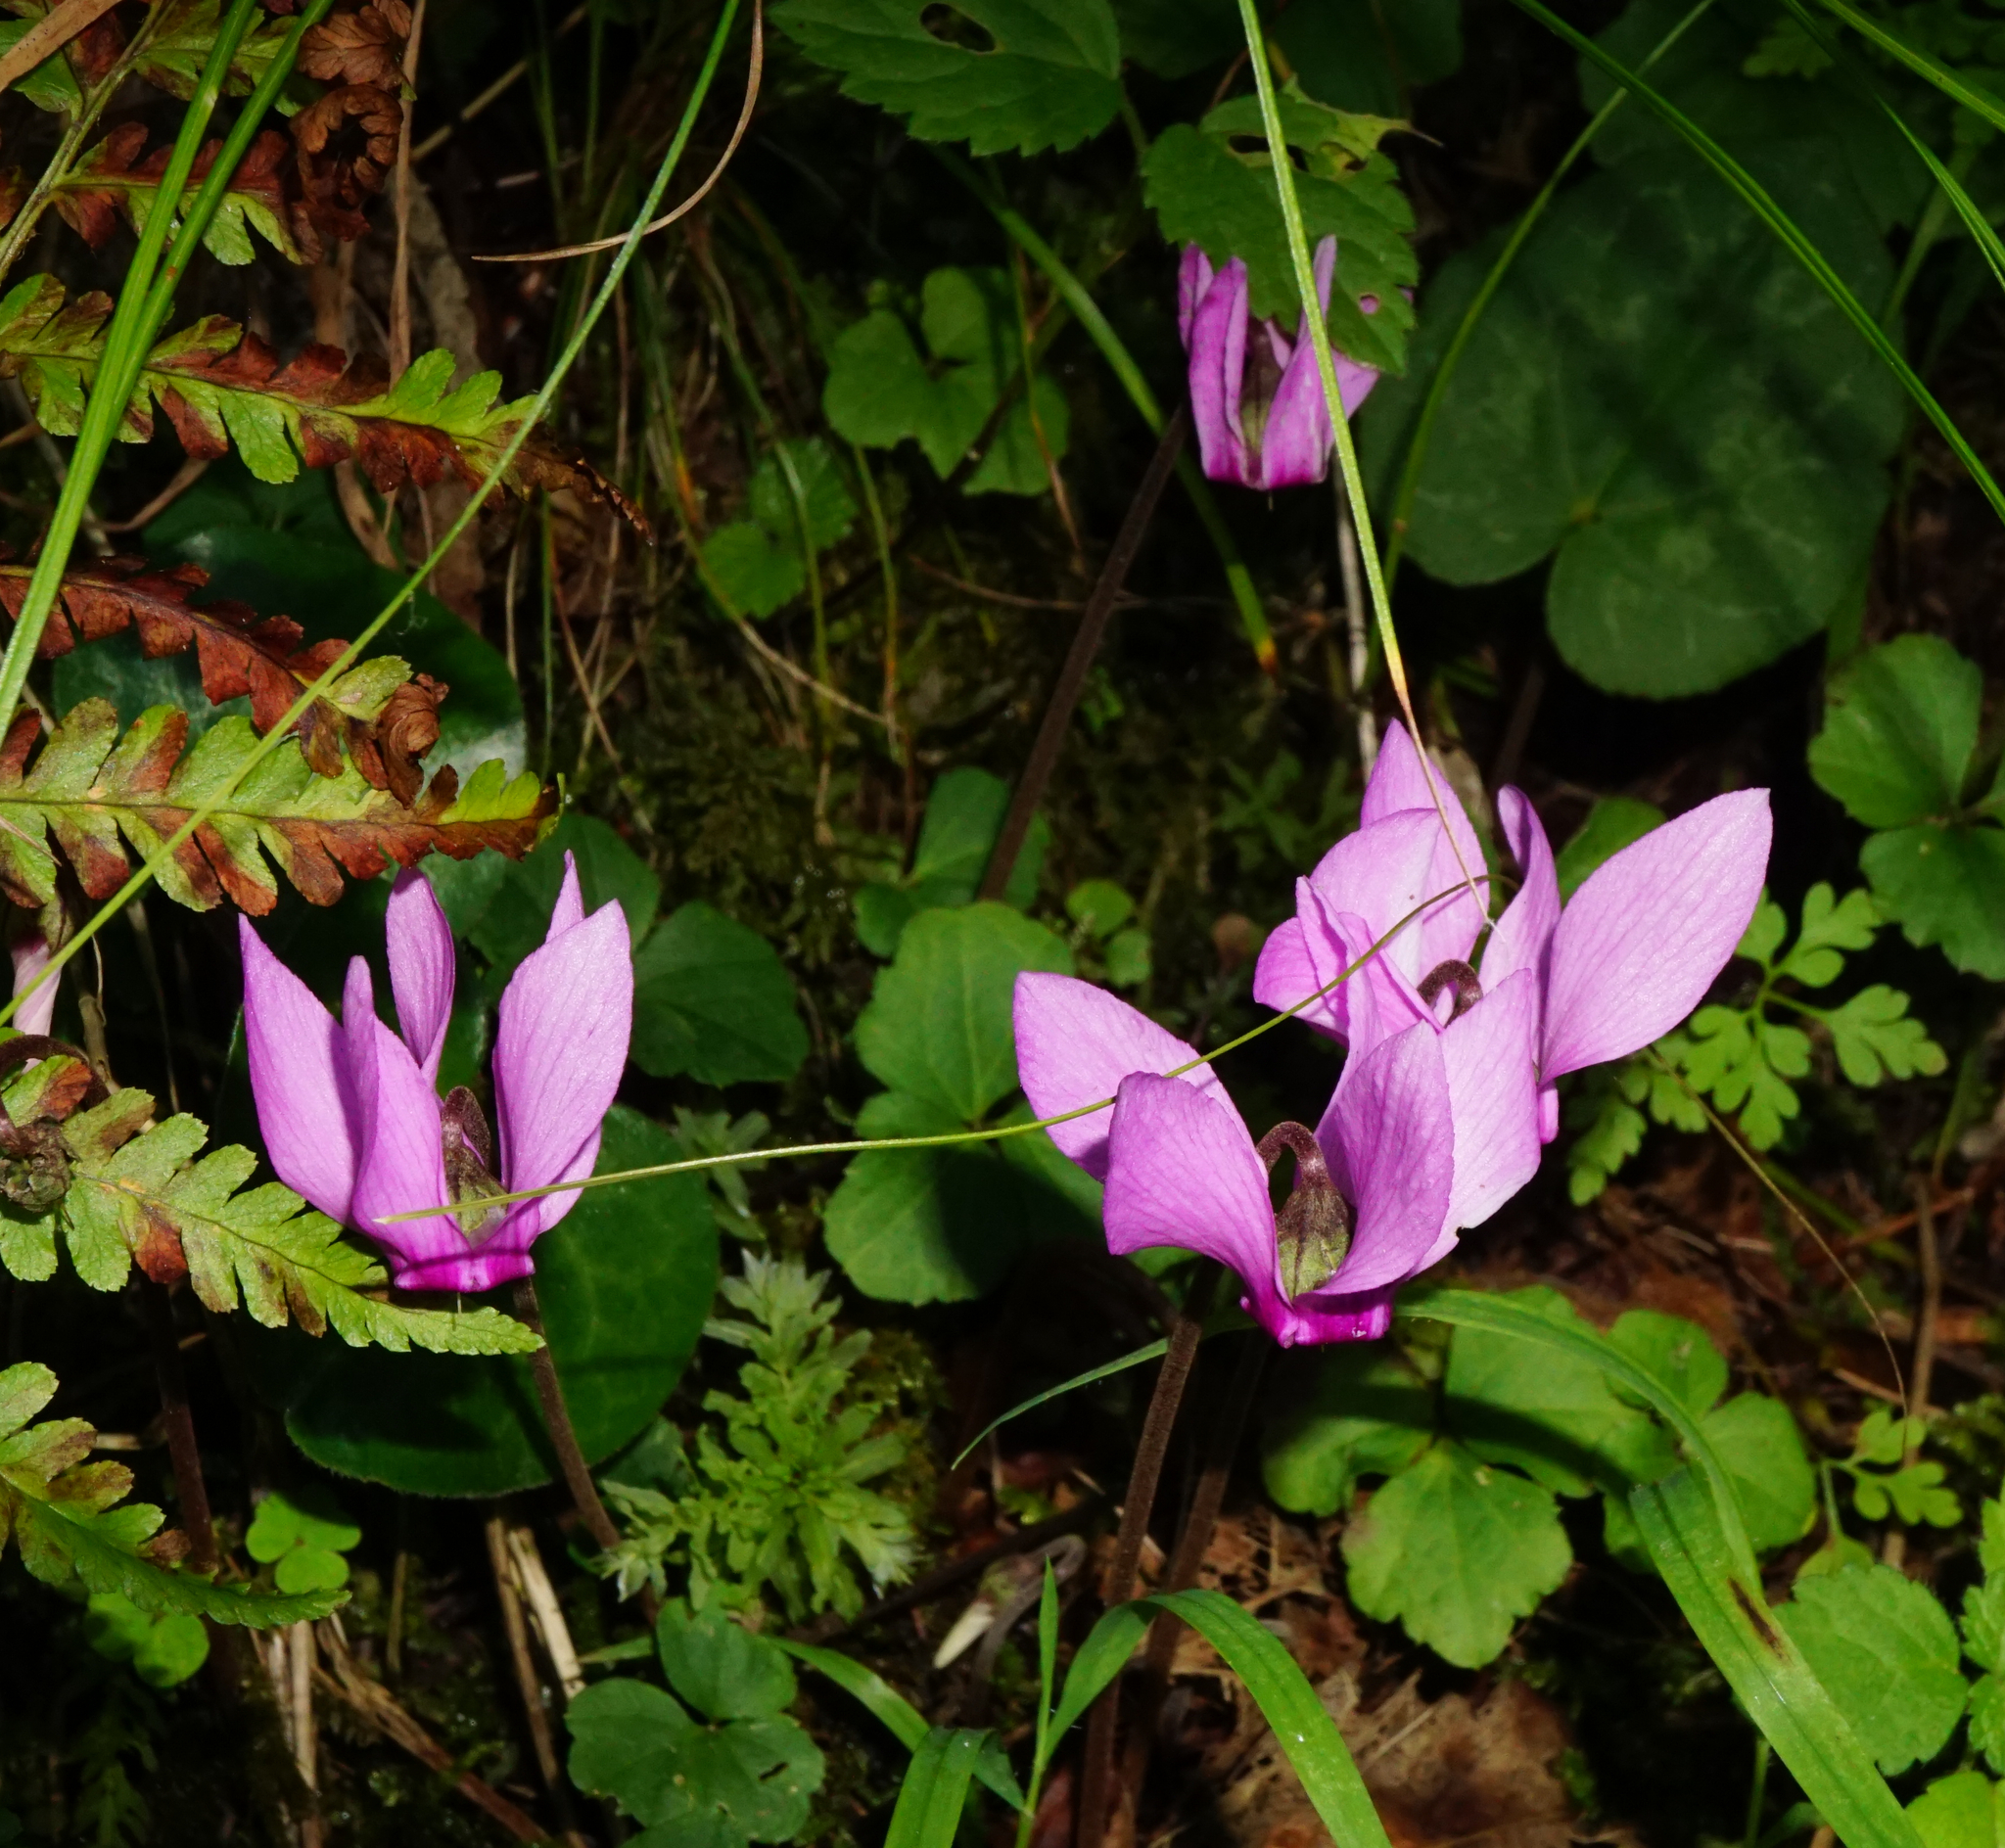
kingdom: Plantae
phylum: Tracheophyta
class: Magnoliopsida
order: Ericales
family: Primulaceae
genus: Cyclamen
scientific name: Cyclamen purpurascens
